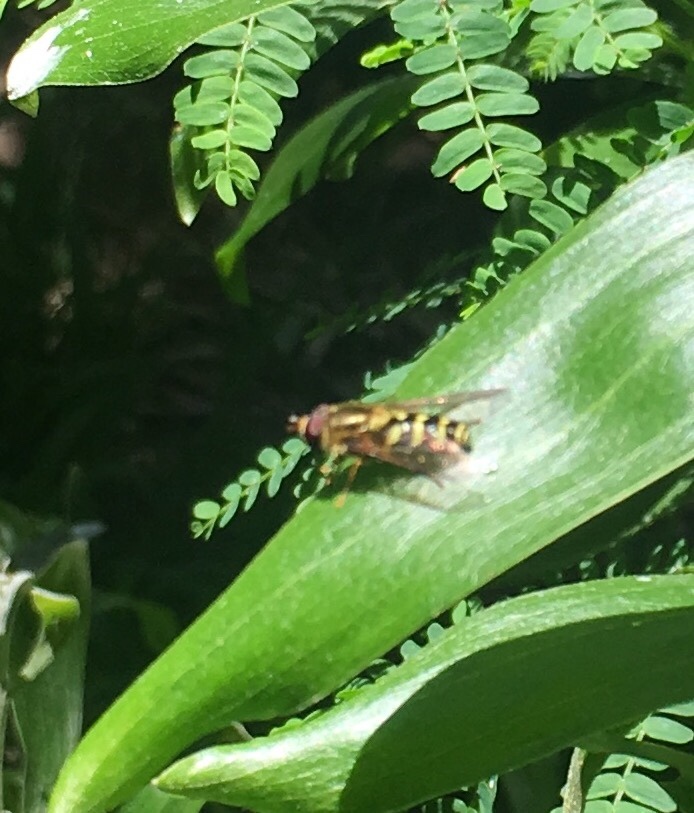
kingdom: Animalia
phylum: Arthropoda
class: Insecta
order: Diptera
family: Syrphidae
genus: Syrphus
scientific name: Syrphus opinator
